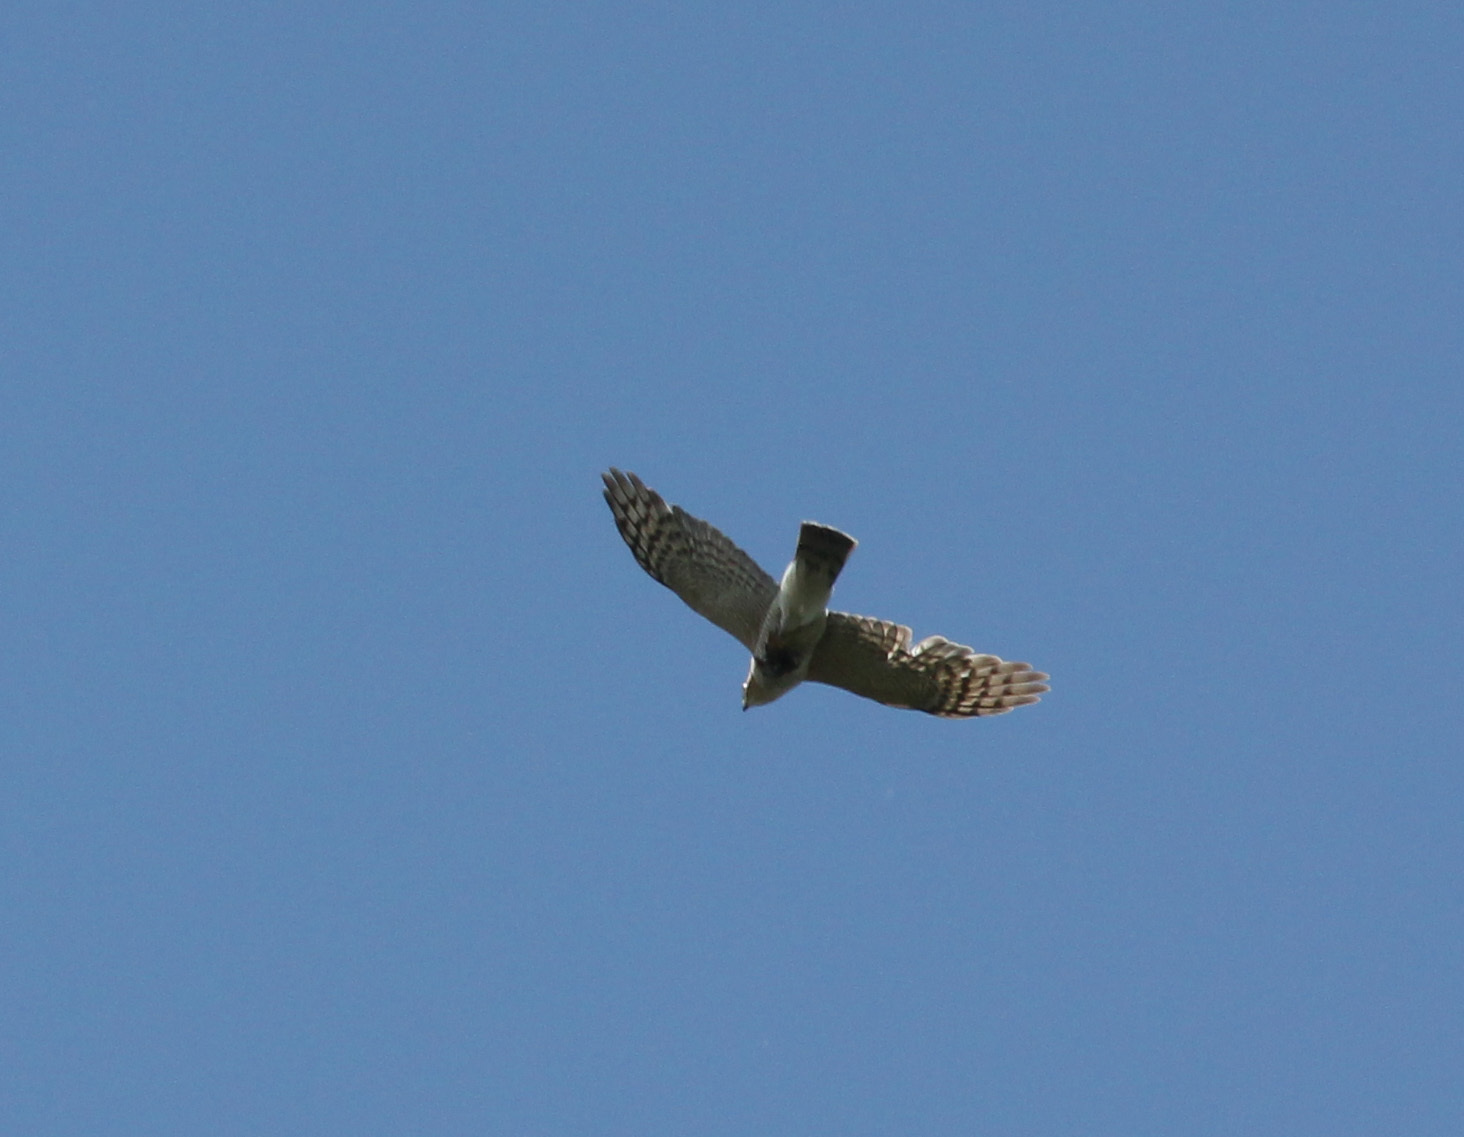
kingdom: Animalia
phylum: Chordata
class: Aves
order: Accipitriformes
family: Accipitridae
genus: Accipiter
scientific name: Accipiter nisus
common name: Eurasian sparrowhawk
